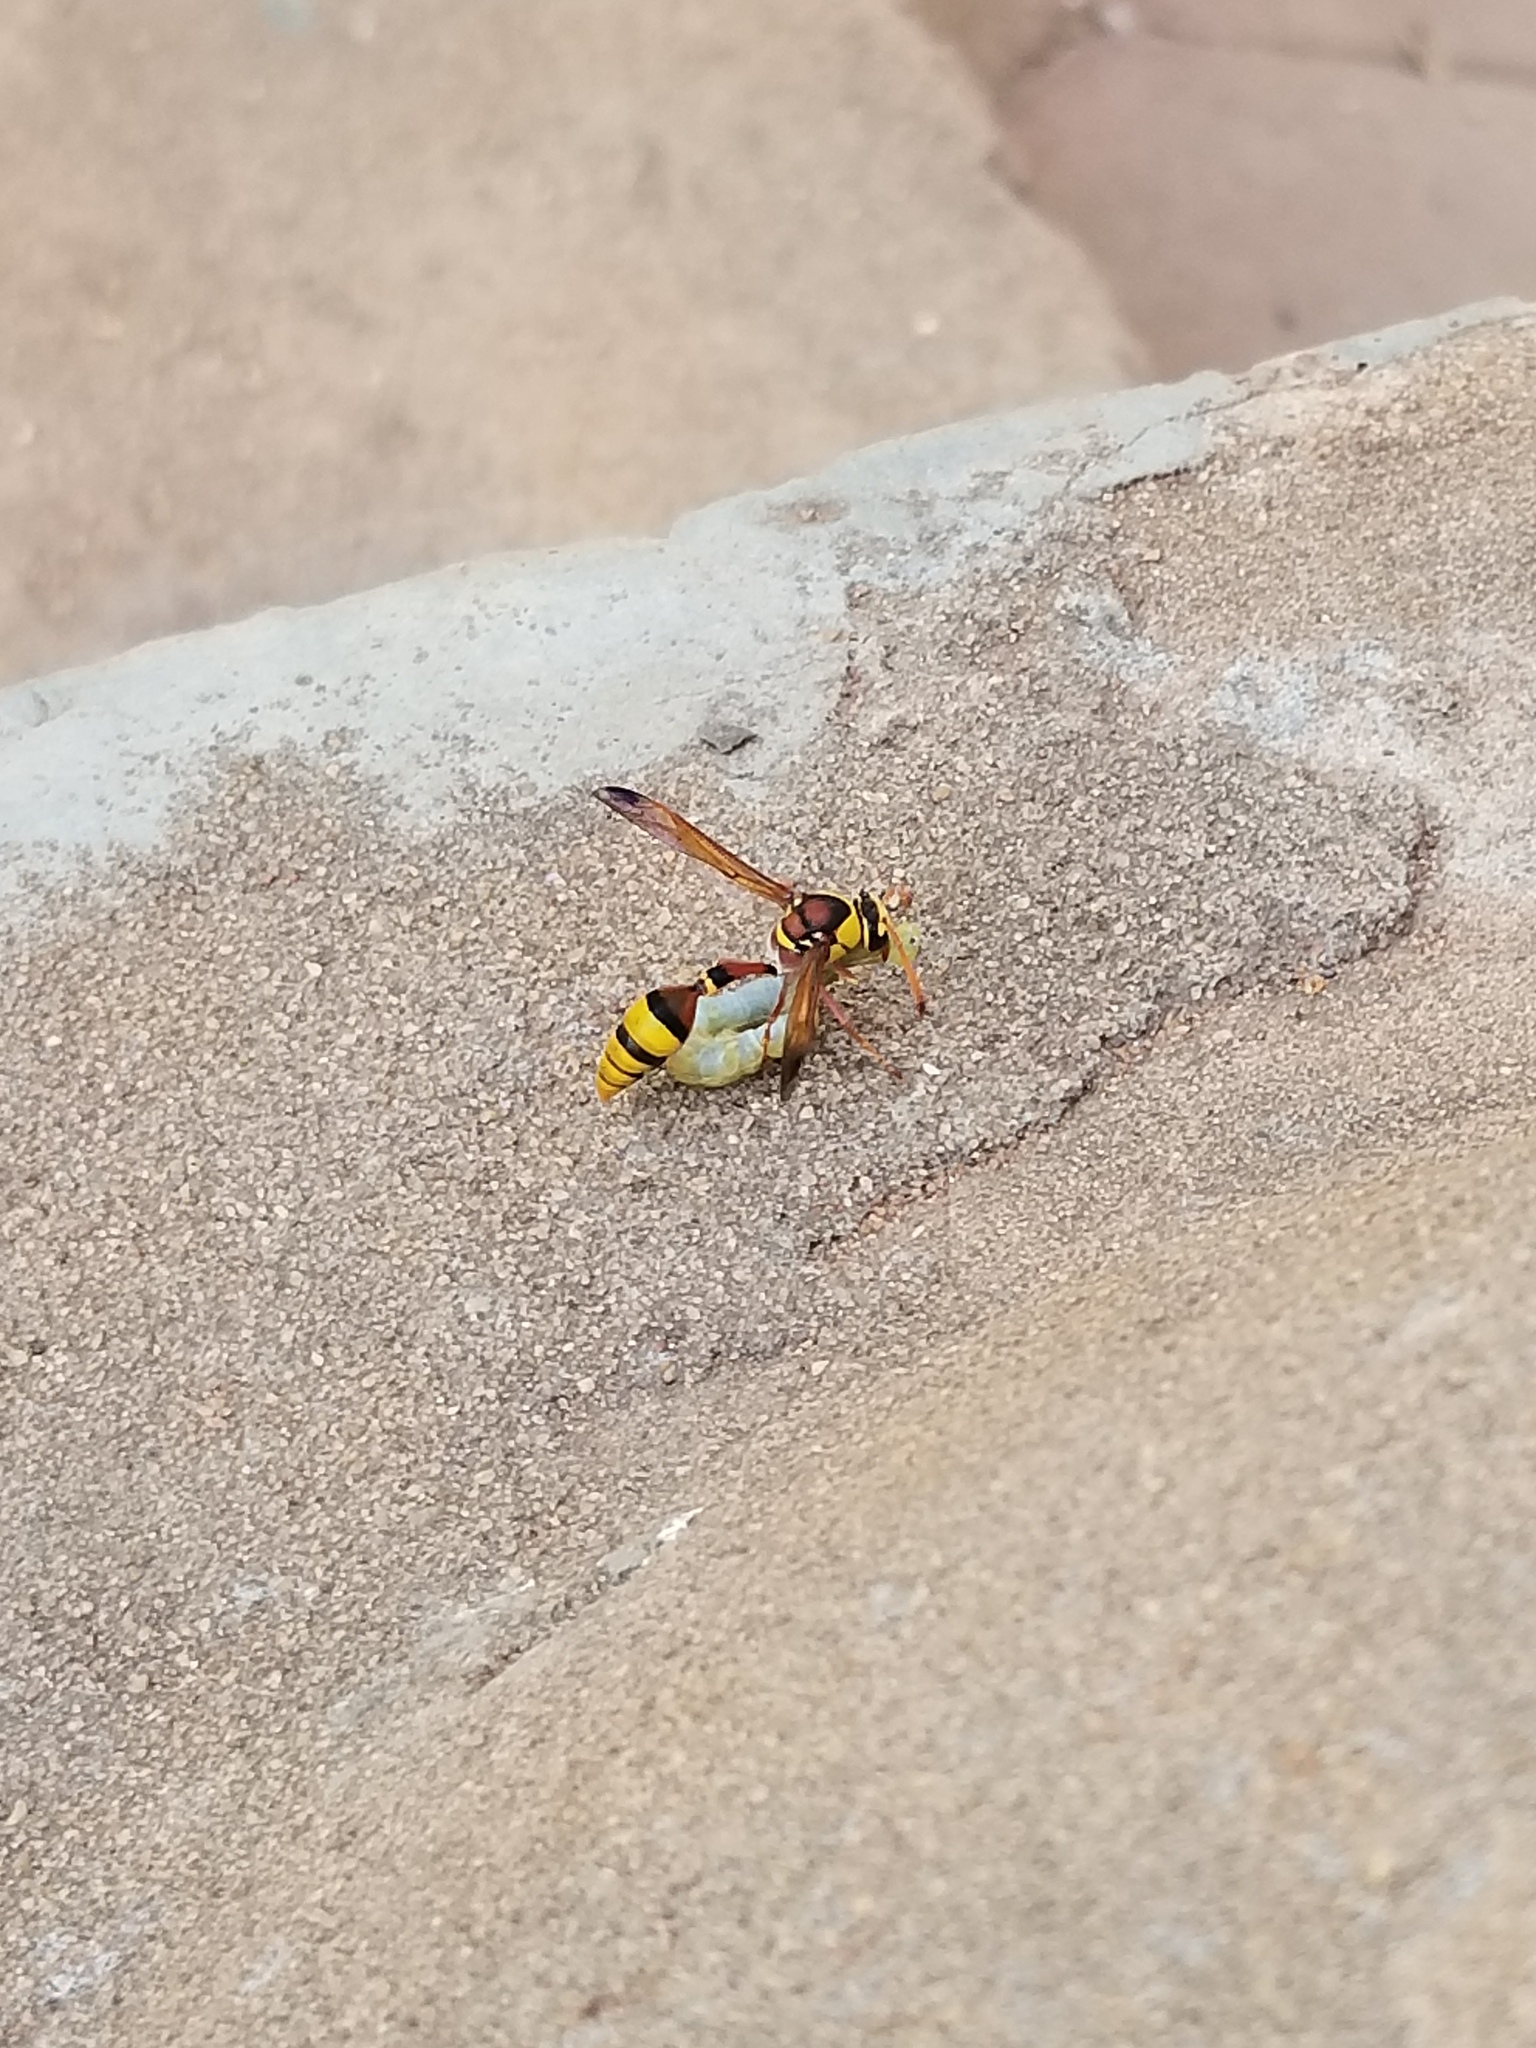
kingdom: Animalia
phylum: Arthropoda
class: Insecta
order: Hymenoptera
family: Eumenidae
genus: Delta
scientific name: Delta esuriens
